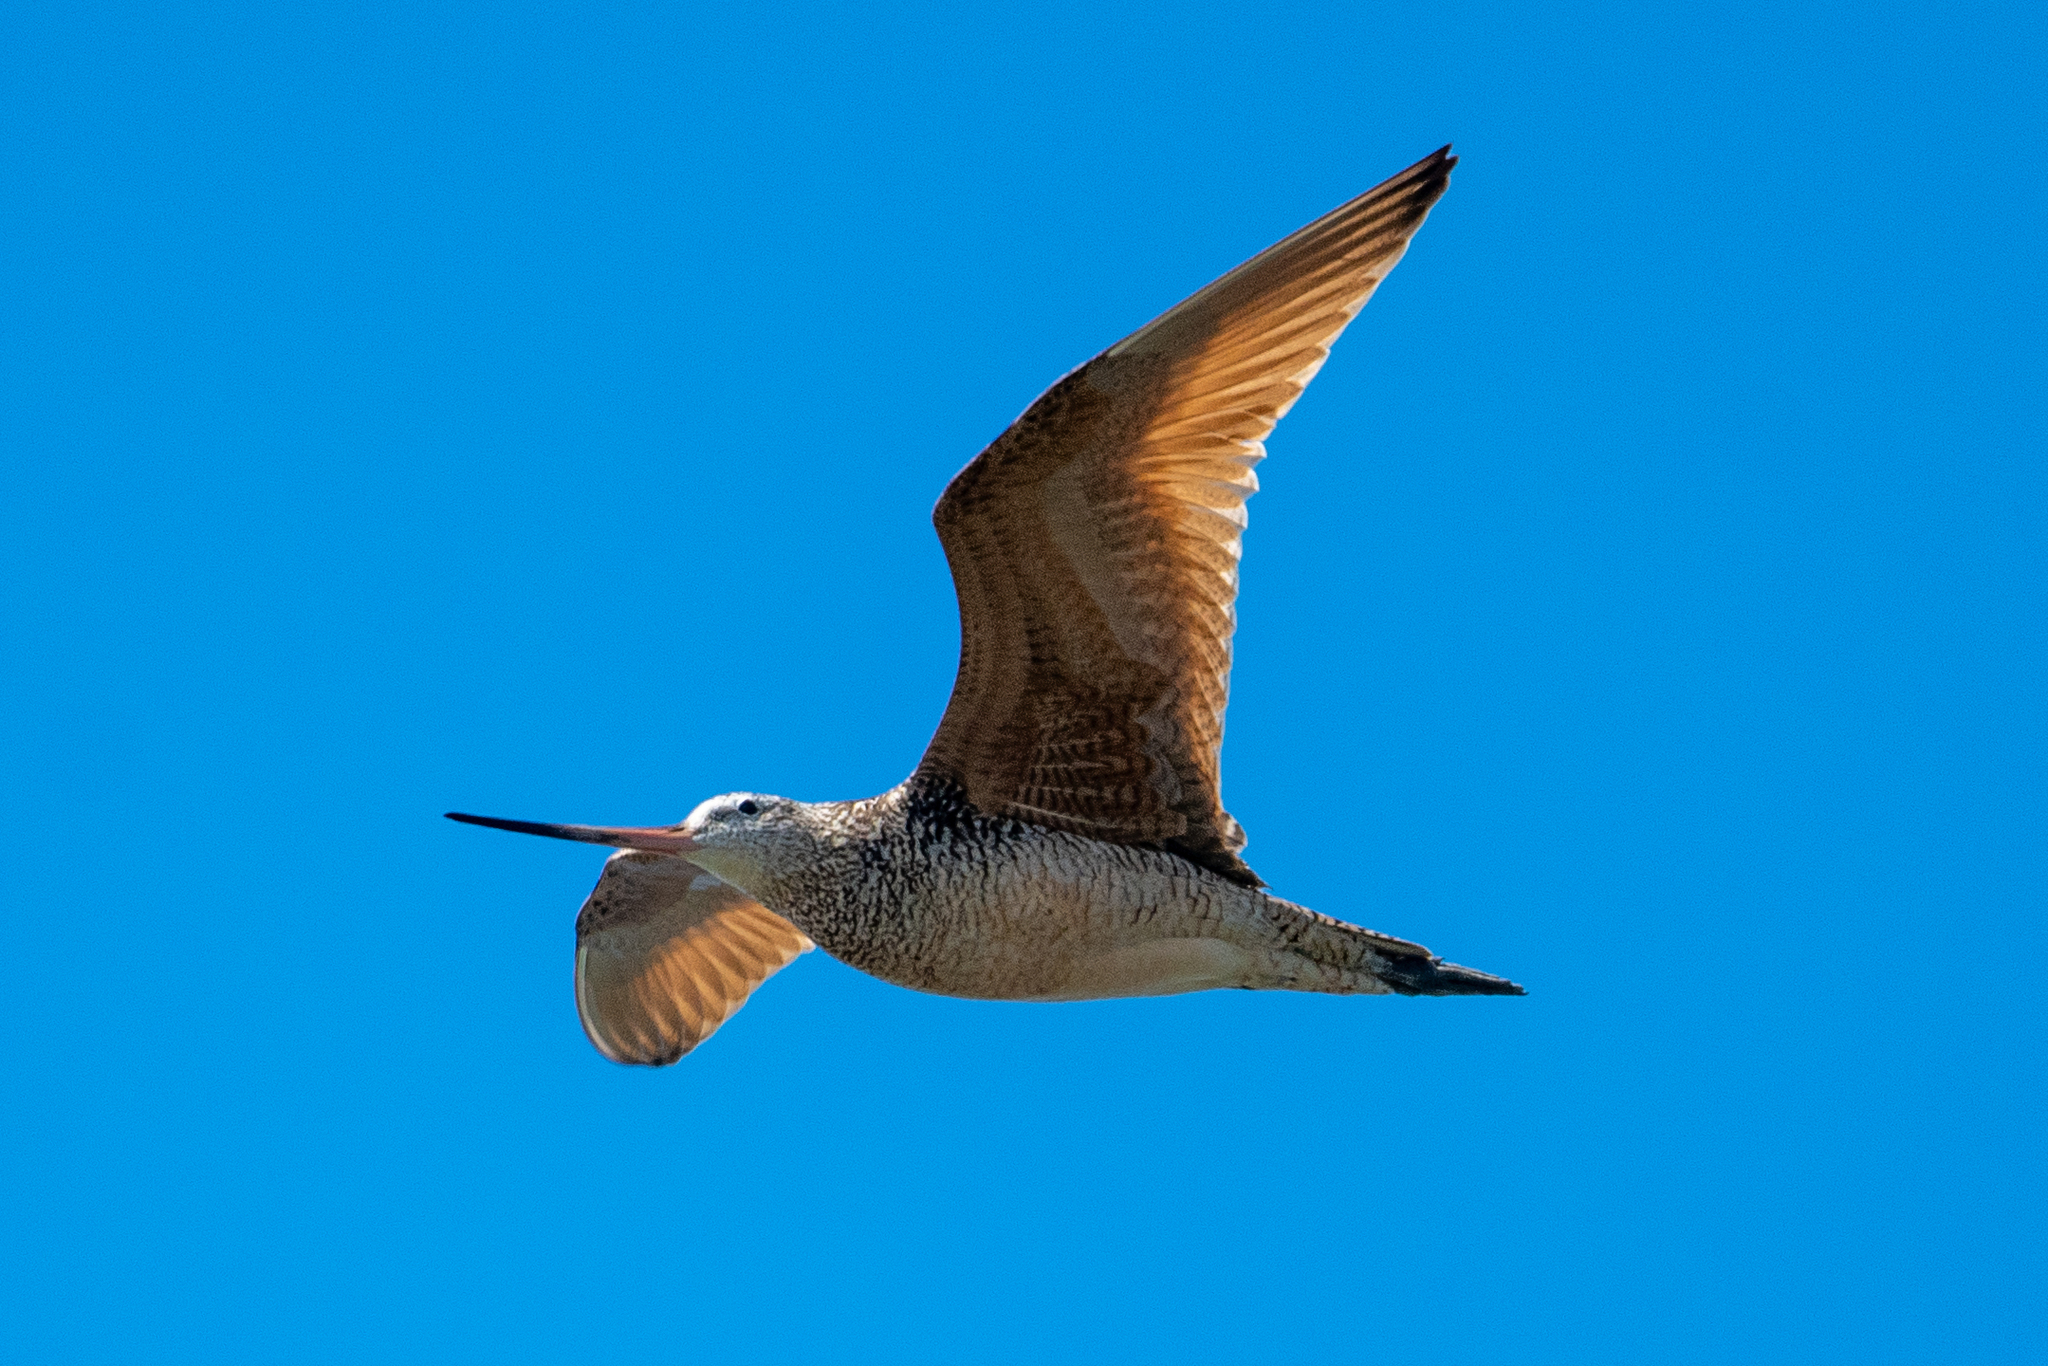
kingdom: Animalia
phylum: Chordata
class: Aves
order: Charadriiformes
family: Scolopacidae
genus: Limosa
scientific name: Limosa fedoa
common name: Marbled godwit
